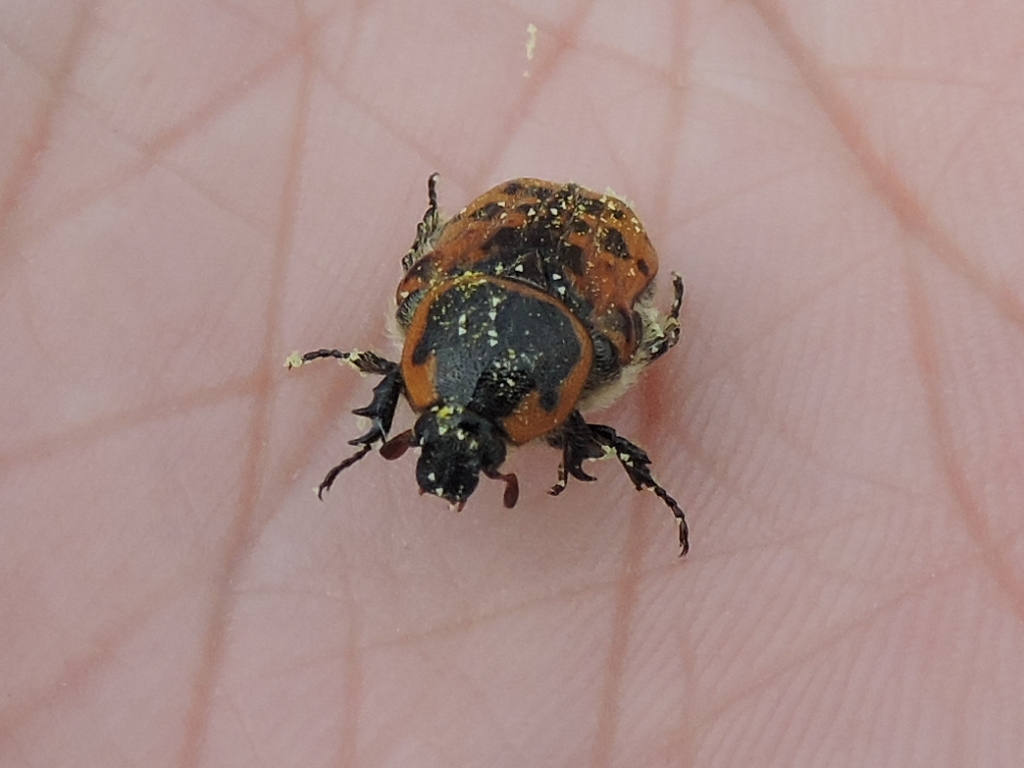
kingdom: Animalia
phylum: Arthropoda
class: Insecta
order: Coleoptera
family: Scarabaeidae
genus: Euphoria
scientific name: Euphoria kernii
